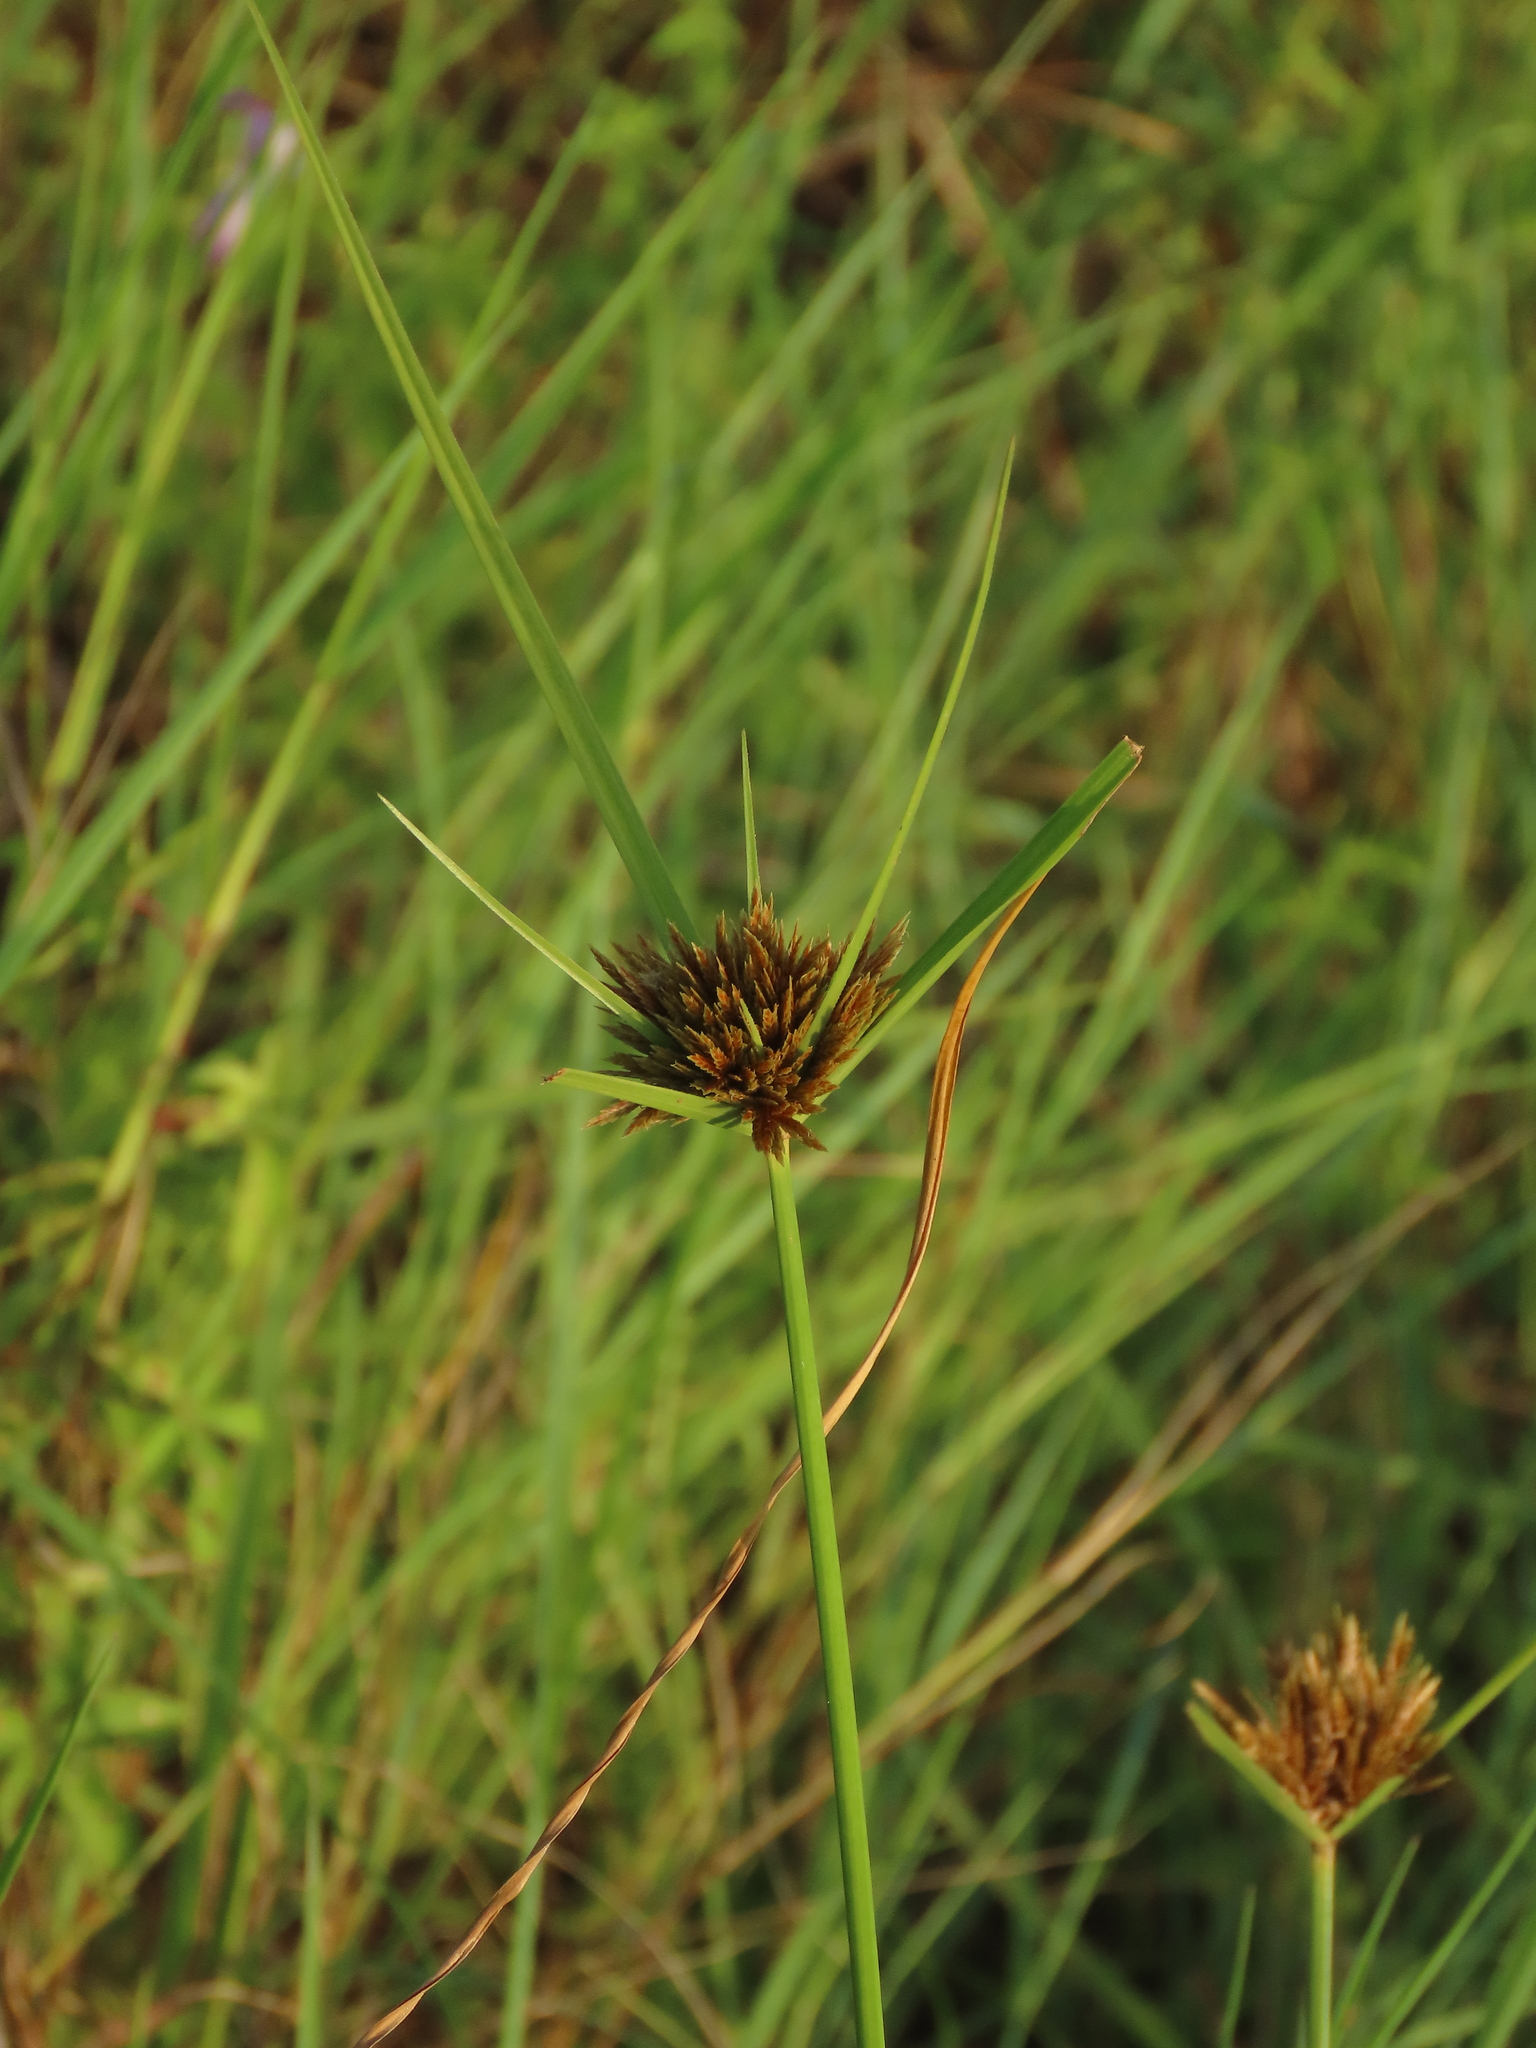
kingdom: Plantae
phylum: Tracheophyta
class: Liliopsida
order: Poales
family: Cyperaceae
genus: Cyperus
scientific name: Cyperus polystachyos
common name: Bunchy flat sedge
